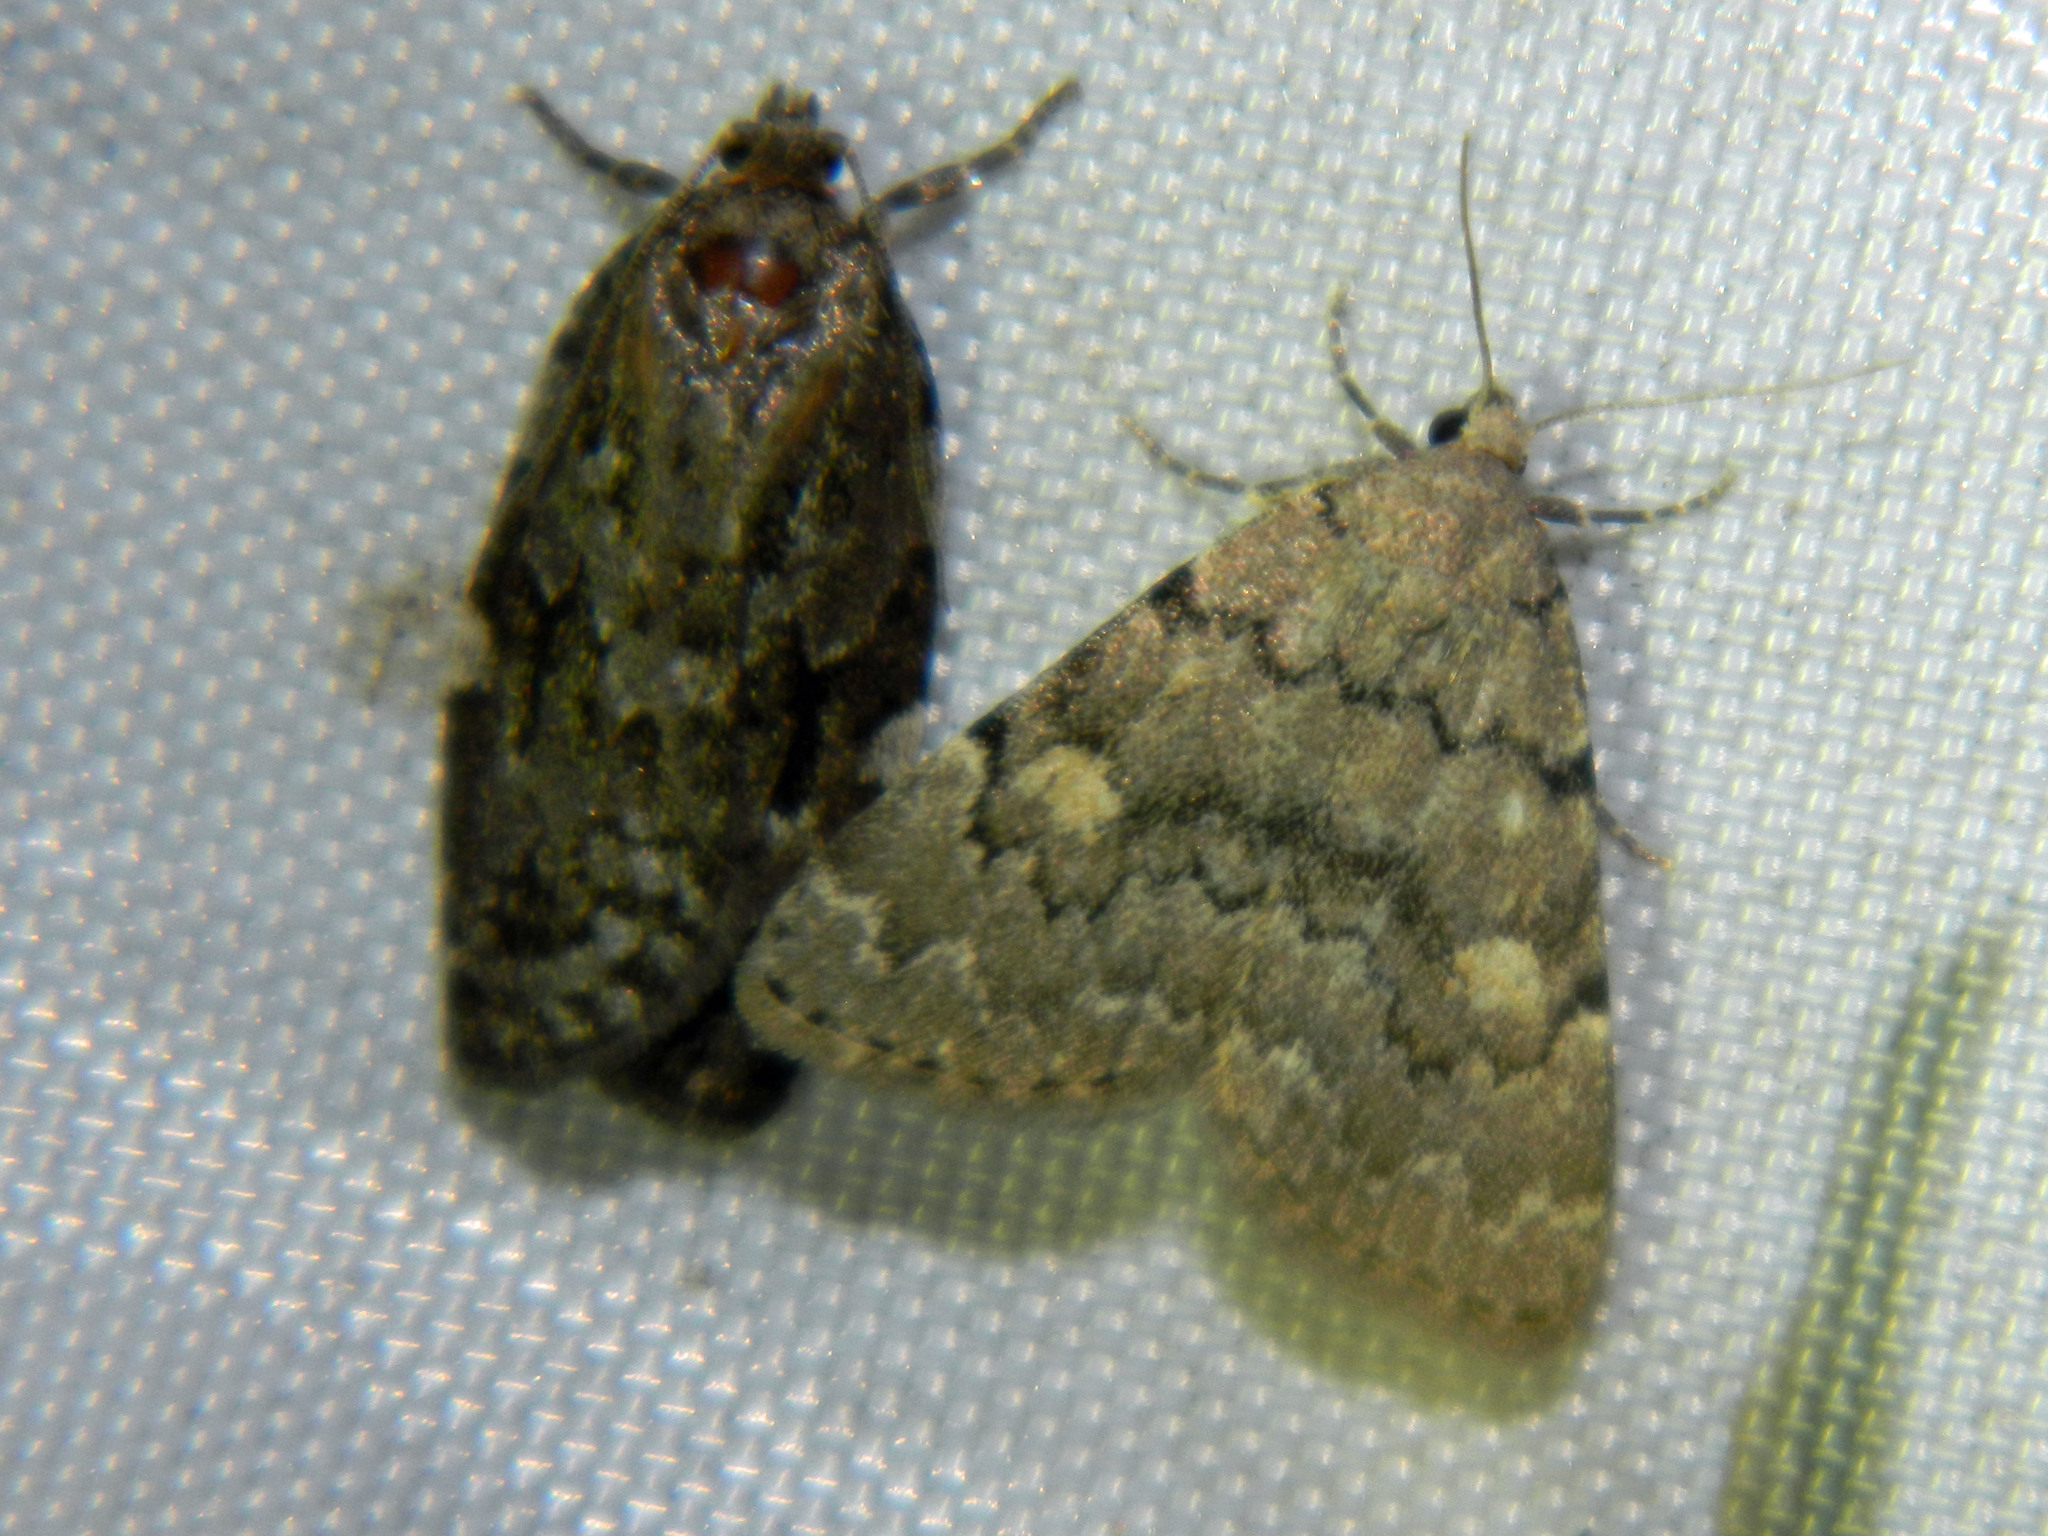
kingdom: Animalia
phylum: Arthropoda
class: Insecta
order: Lepidoptera
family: Erebidae
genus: Idia
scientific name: Idia aemula
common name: Common idia moth
